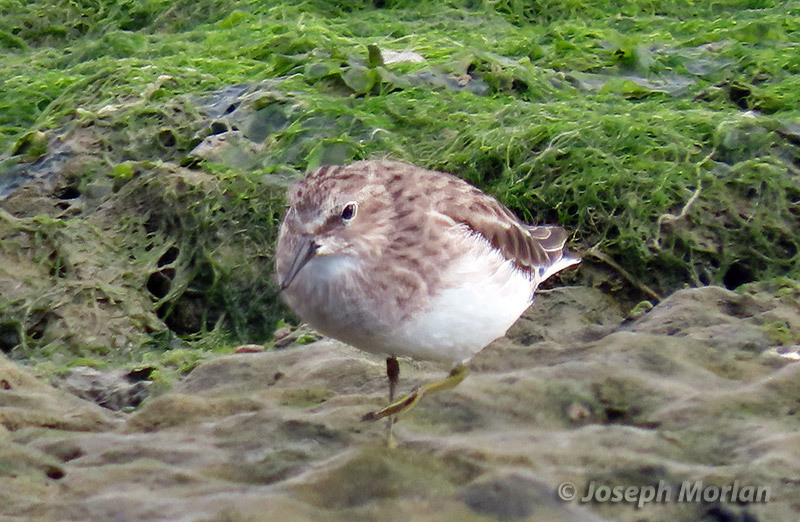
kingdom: Animalia
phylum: Chordata
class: Aves
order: Charadriiformes
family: Scolopacidae
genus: Calidris
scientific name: Calidris minutilla
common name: Least sandpiper
